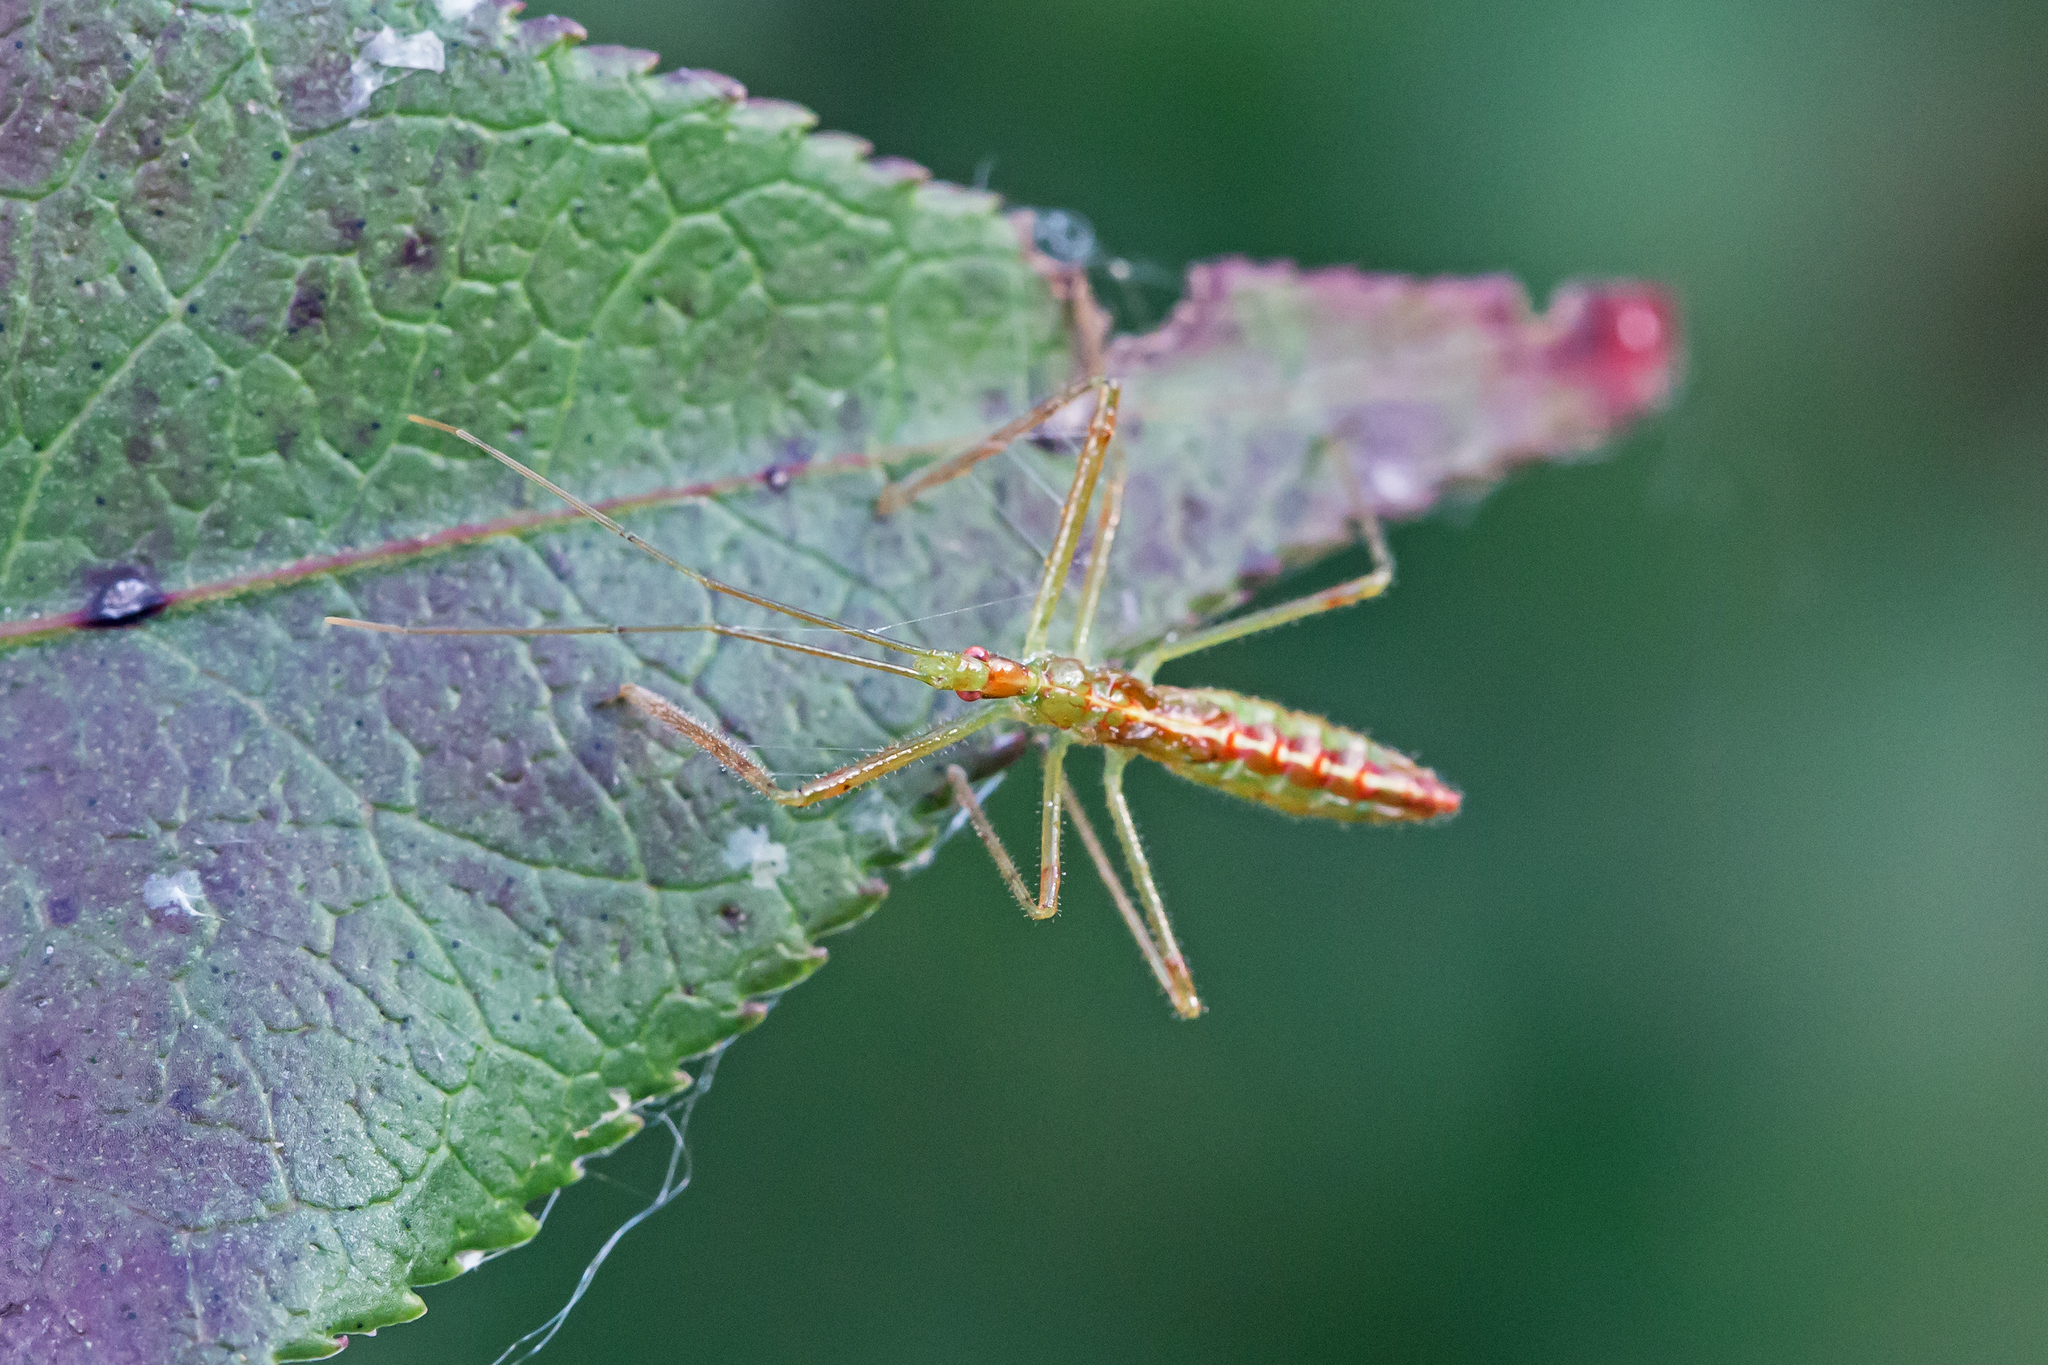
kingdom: Animalia
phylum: Arthropoda
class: Insecta
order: Hemiptera
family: Reduviidae
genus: Zelus
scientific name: Zelus luridus
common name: Pale green assassin bug
